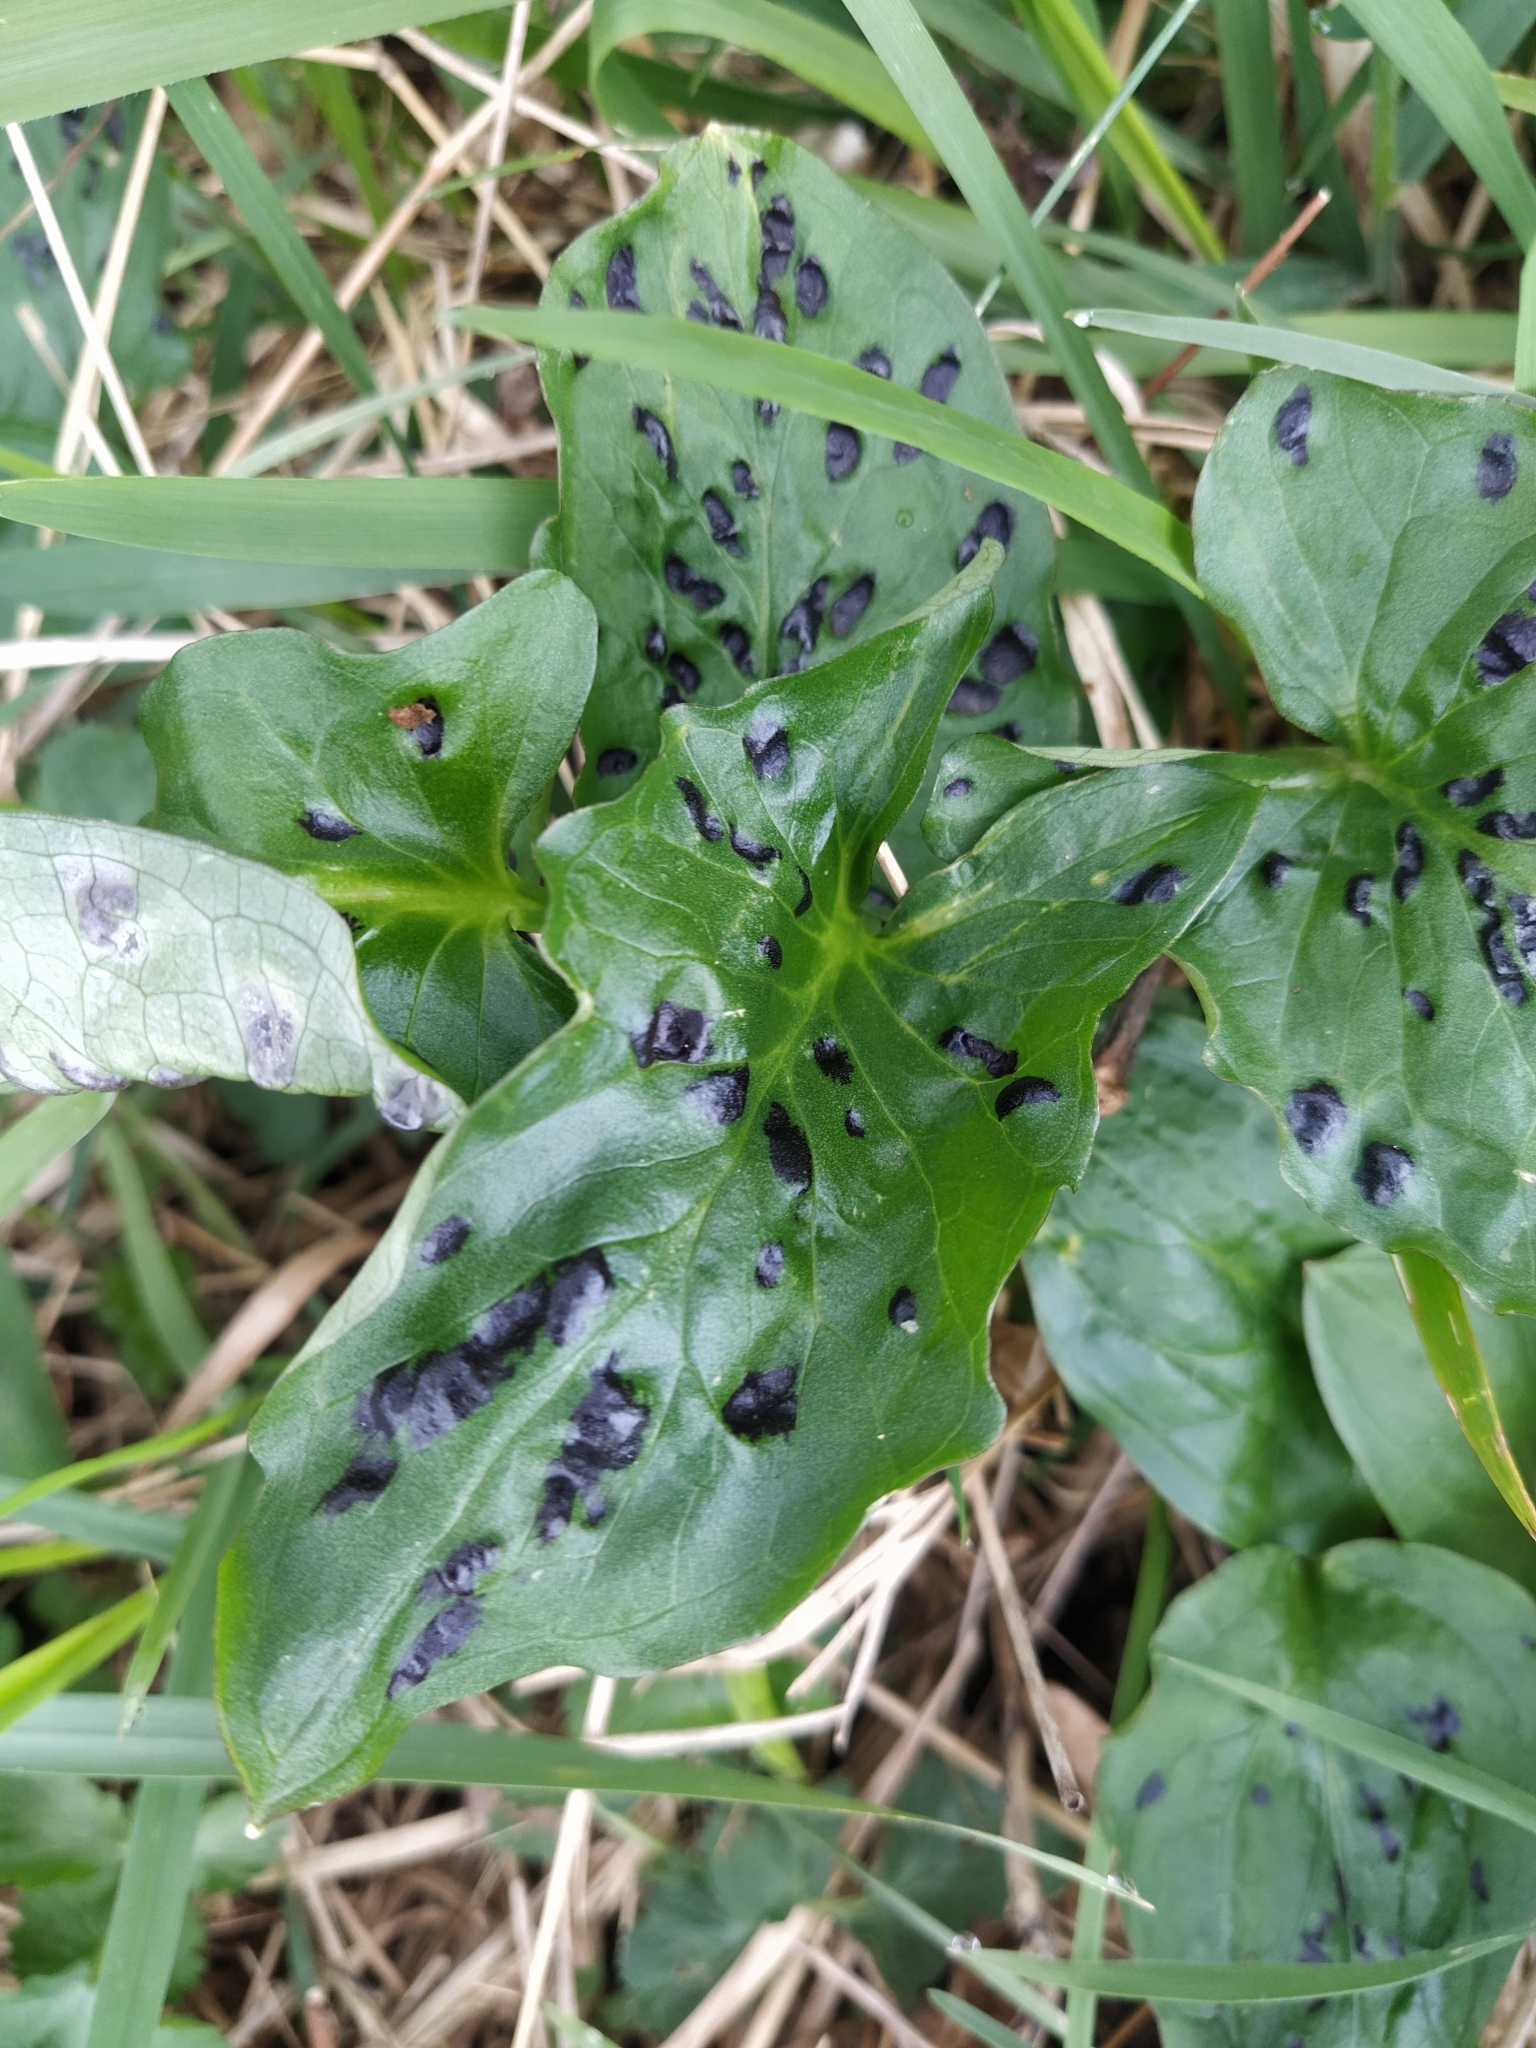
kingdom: Plantae
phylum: Tracheophyta
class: Liliopsida
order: Alismatales
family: Araceae
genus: Arum
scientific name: Arum maculatum
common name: Lords-and-ladies
